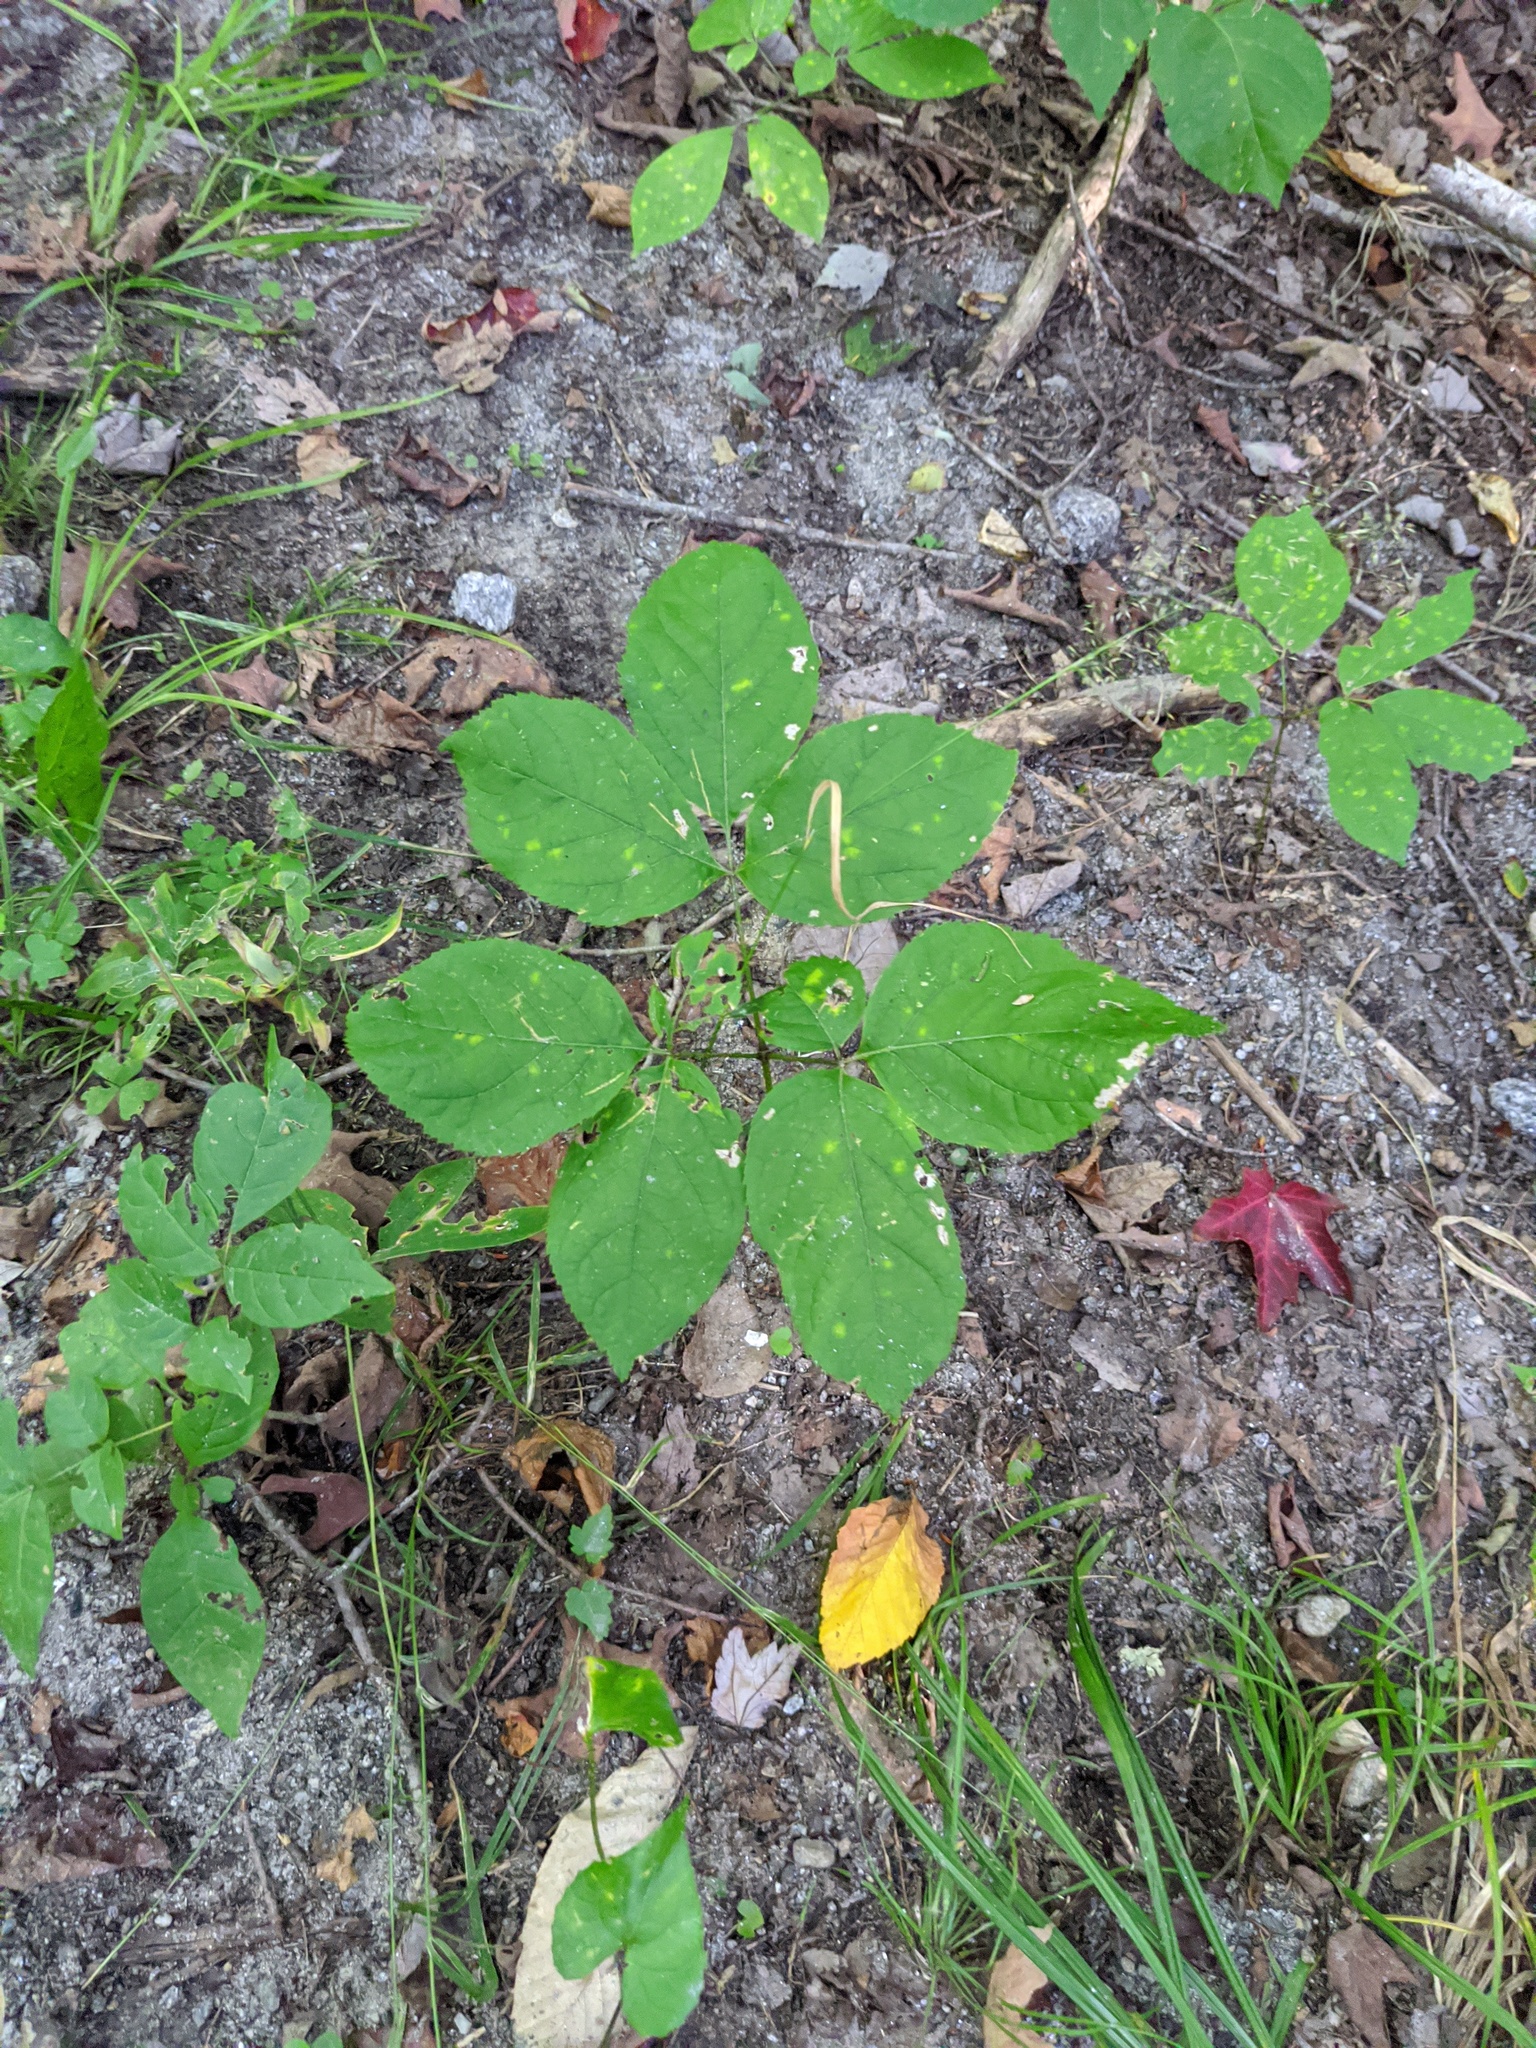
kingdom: Plantae
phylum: Tracheophyta
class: Magnoliopsida
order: Apiales
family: Araliaceae
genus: Aralia
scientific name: Aralia nudicaulis
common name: Wild sarsaparilla
